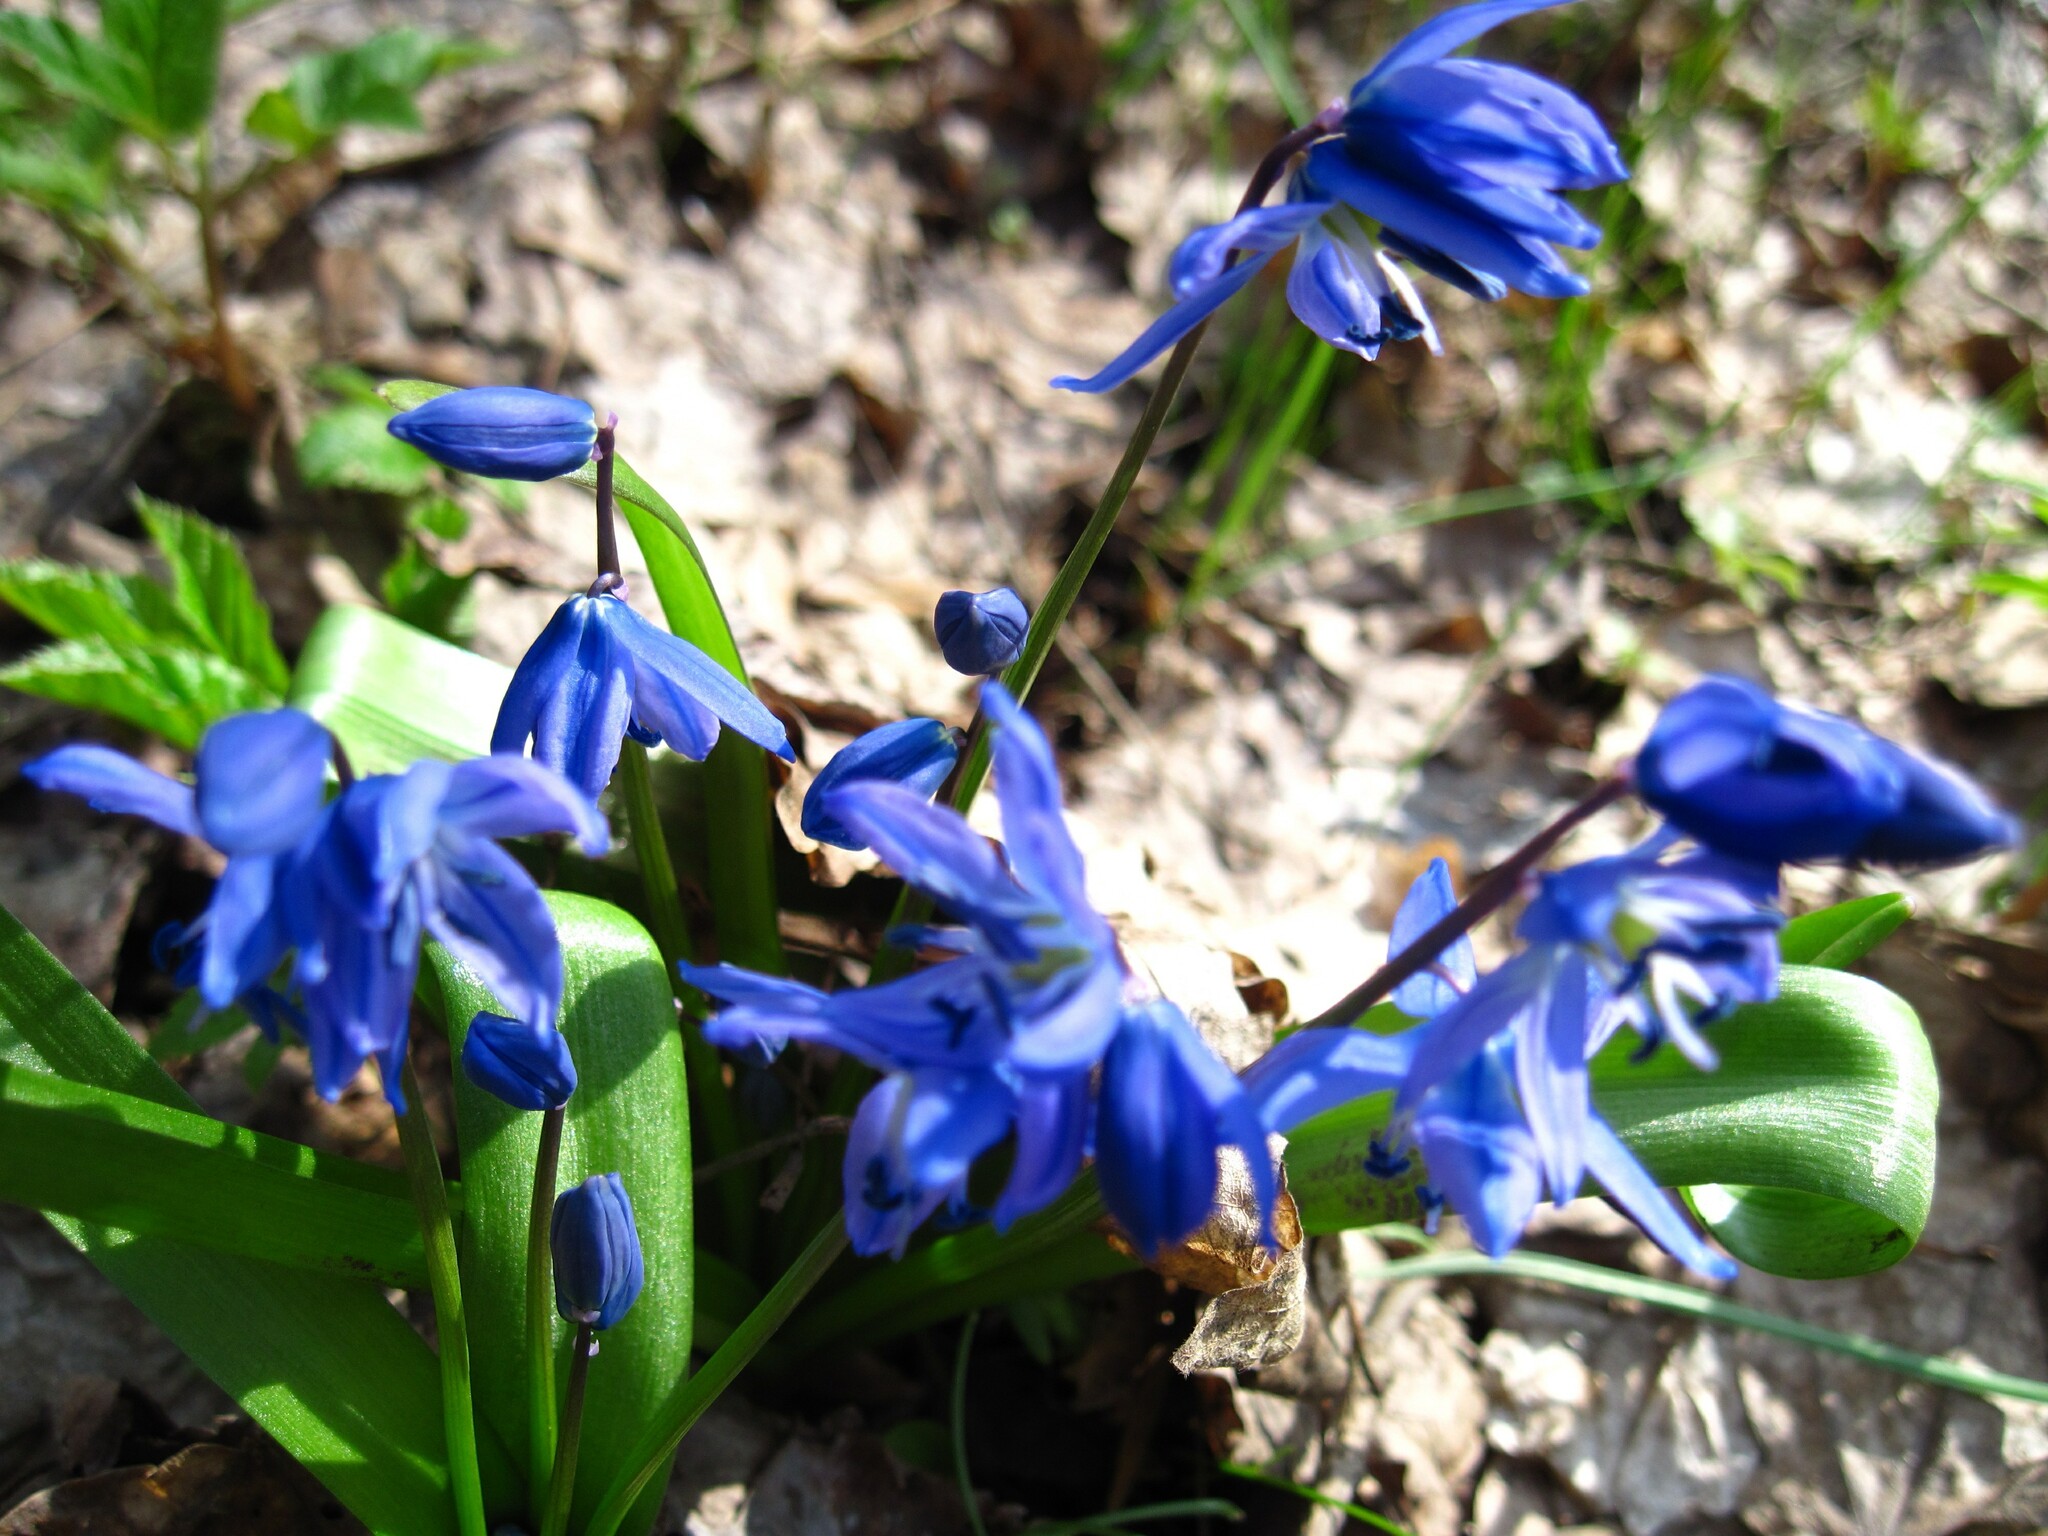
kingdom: Plantae
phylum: Tracheophyta
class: Liliopsida
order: Asparagales
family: Asparagaceae
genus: Scilla
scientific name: Scilla siberica
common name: Siberian squill
